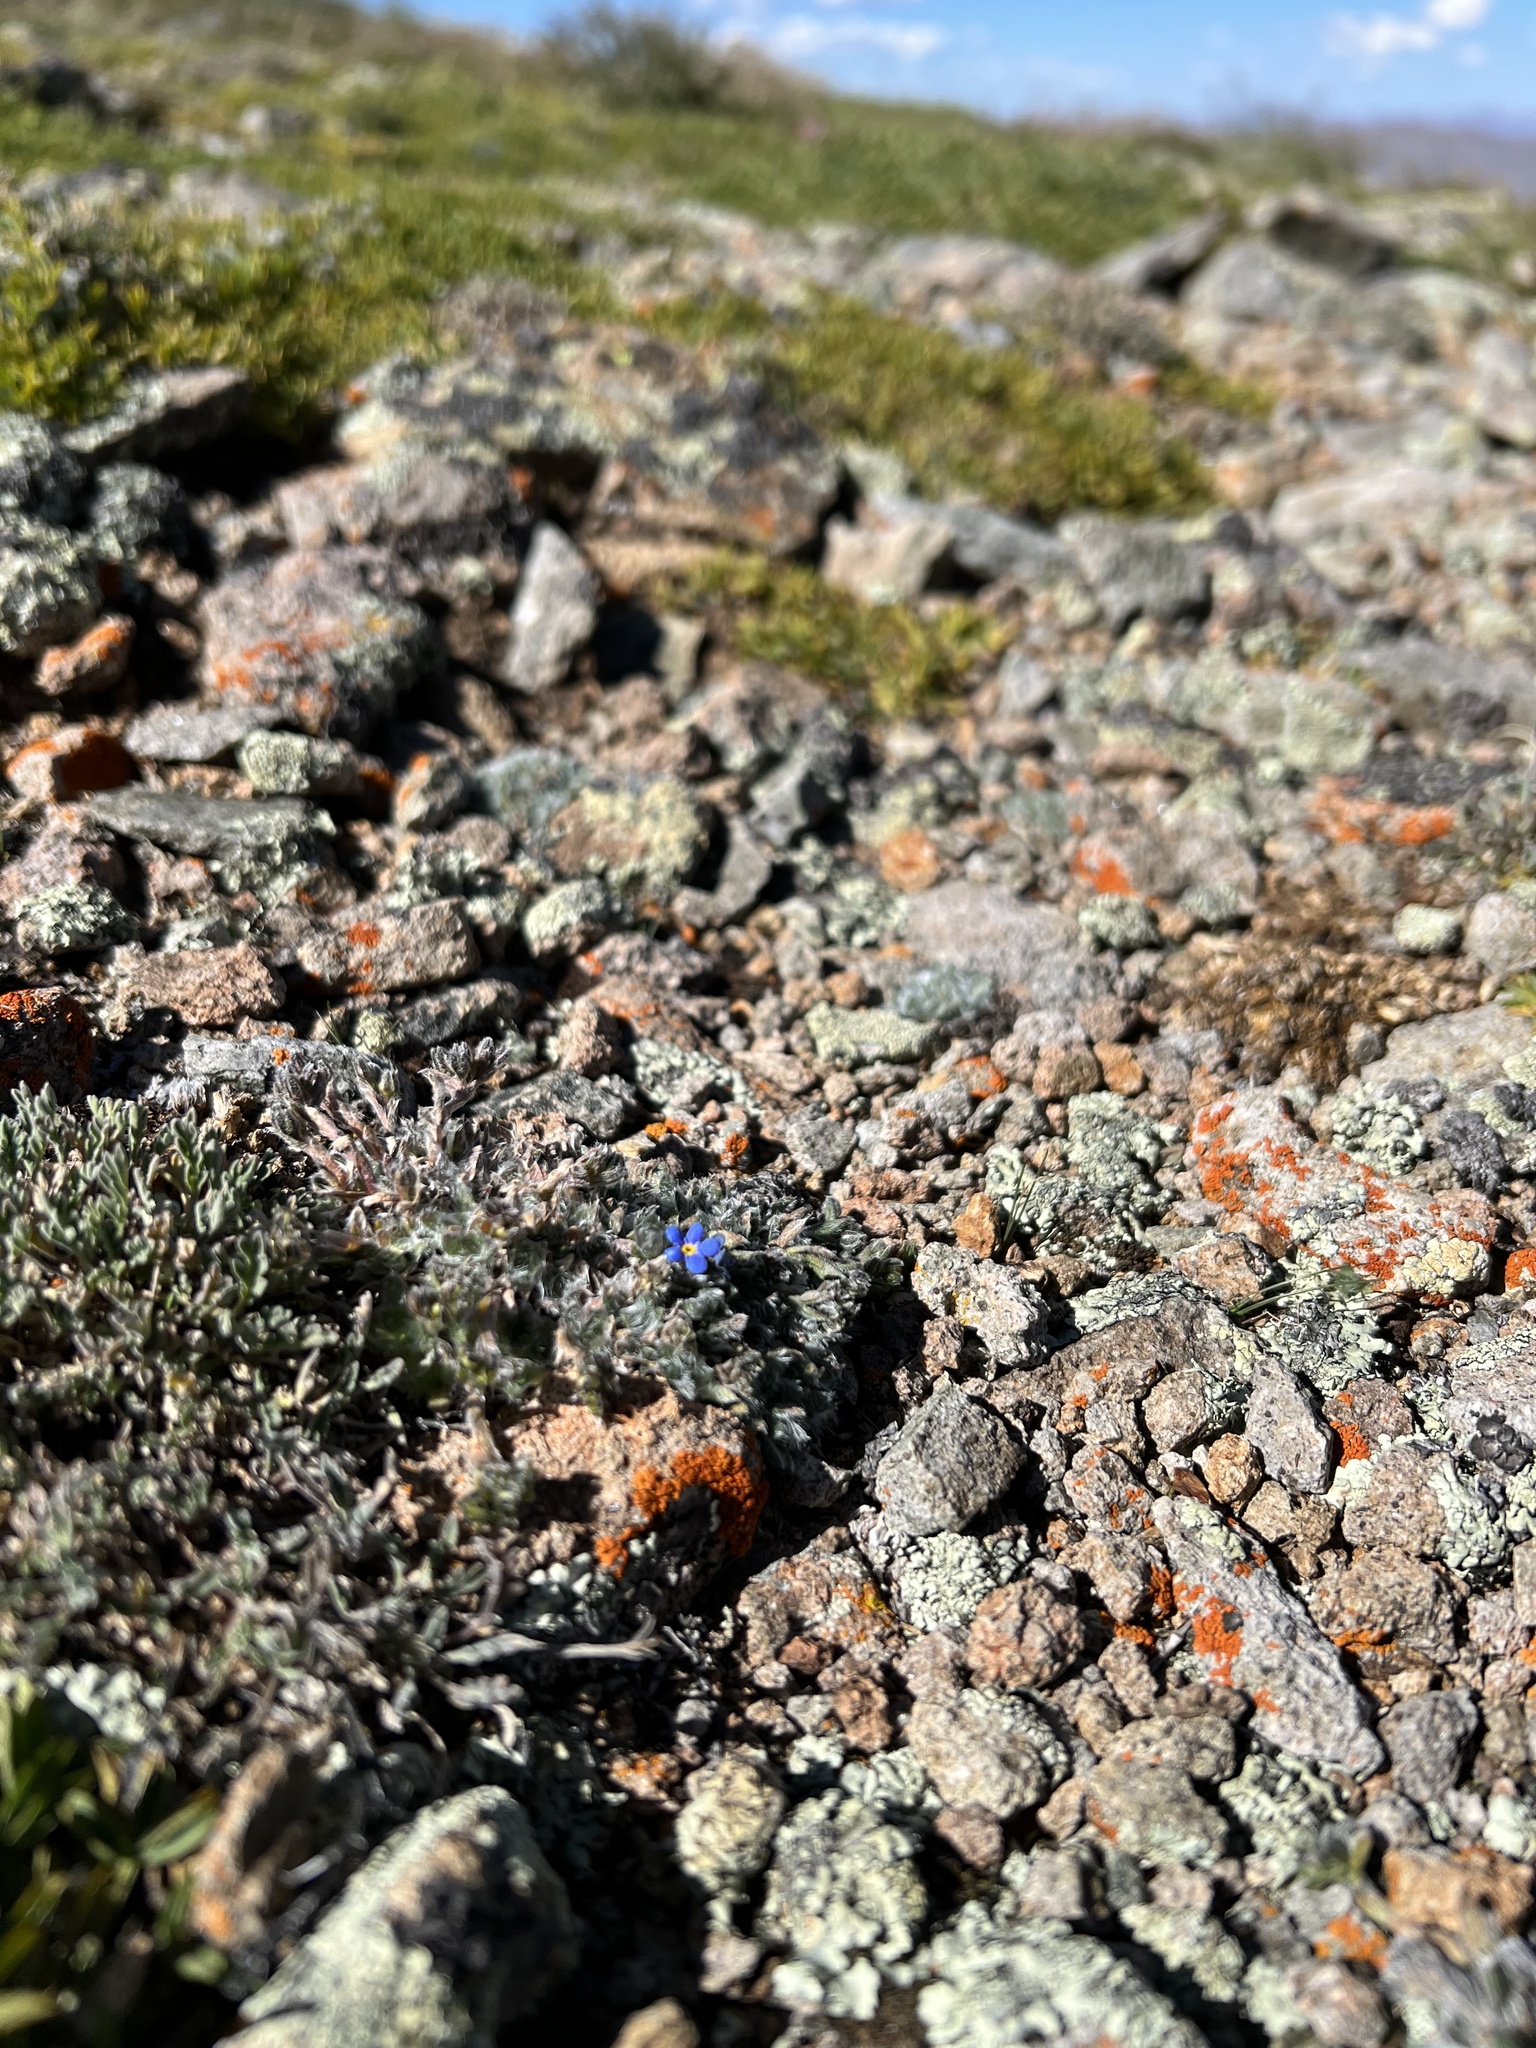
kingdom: Plantae
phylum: Tracheophyta
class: Magnoliopsida
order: Boraginales
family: Boraginaceae
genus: Eritrichium
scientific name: Eritrichium argenteum
